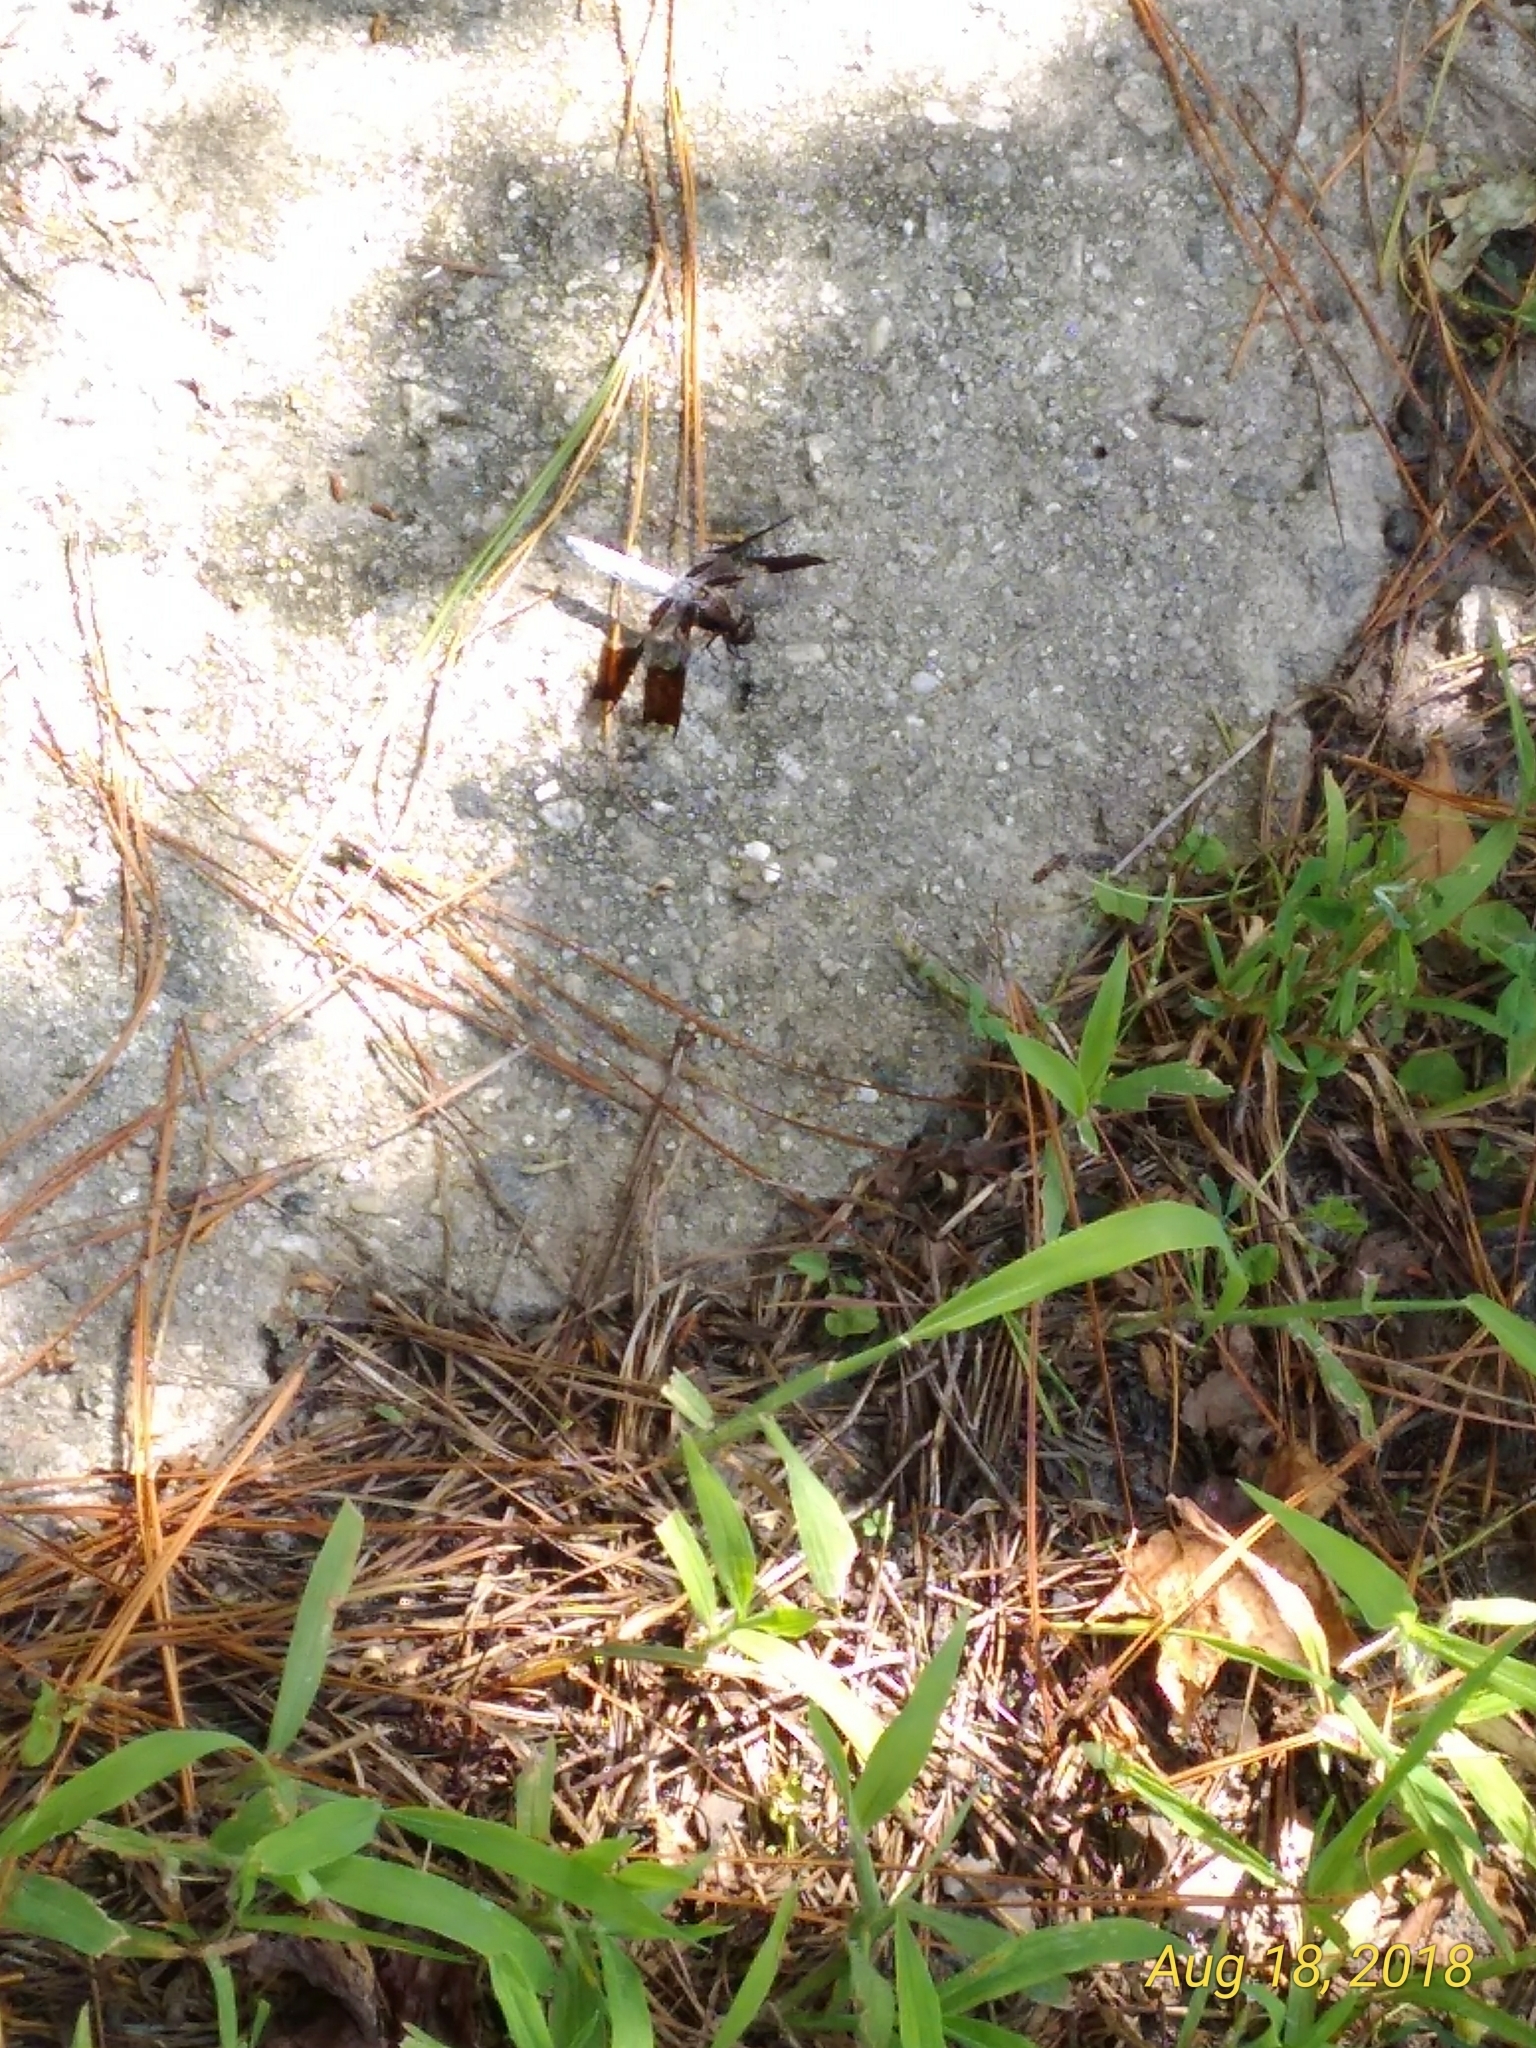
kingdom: Animalia
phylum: Arthropoda
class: Insecta
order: Odonata
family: Libellulidae
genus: Plathemis
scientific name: Plathemis lydia
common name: Common whitetail
